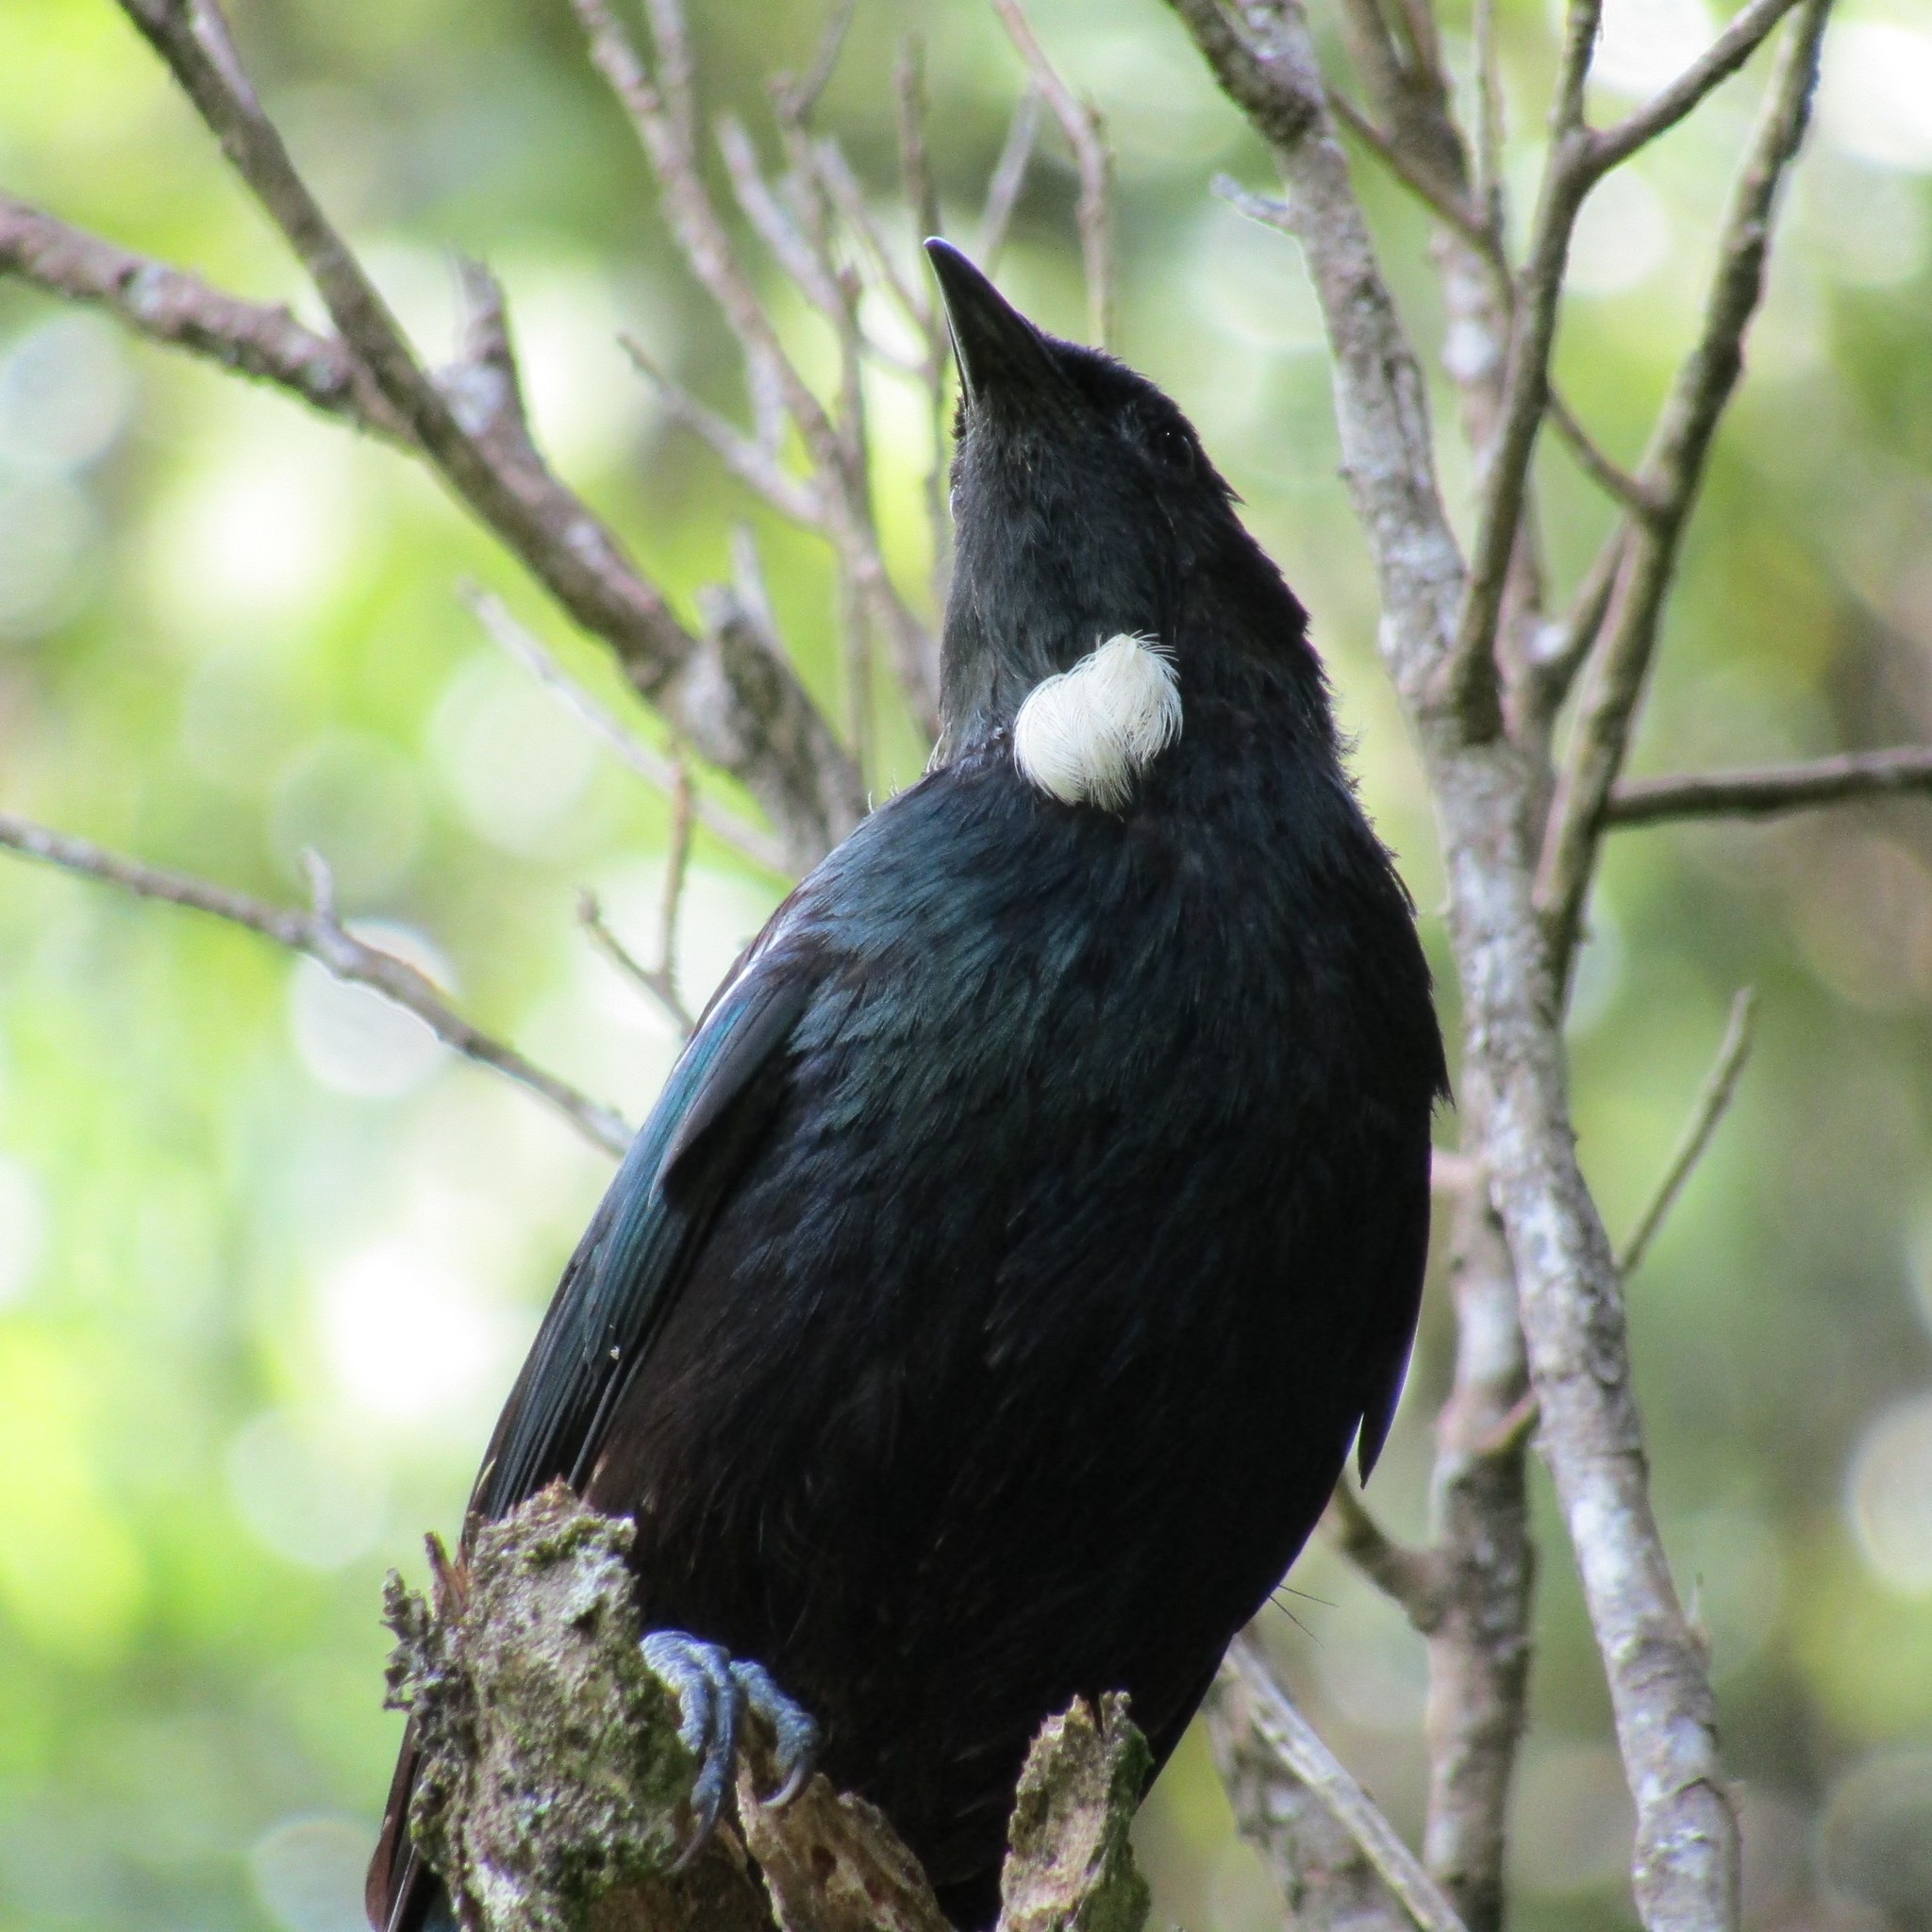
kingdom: Animalia
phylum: Chordata
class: Aves
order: Passeriformes
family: Meliphagidae
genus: Prosthemadera
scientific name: Prosthemadera novaeseelandiae
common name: Tui
